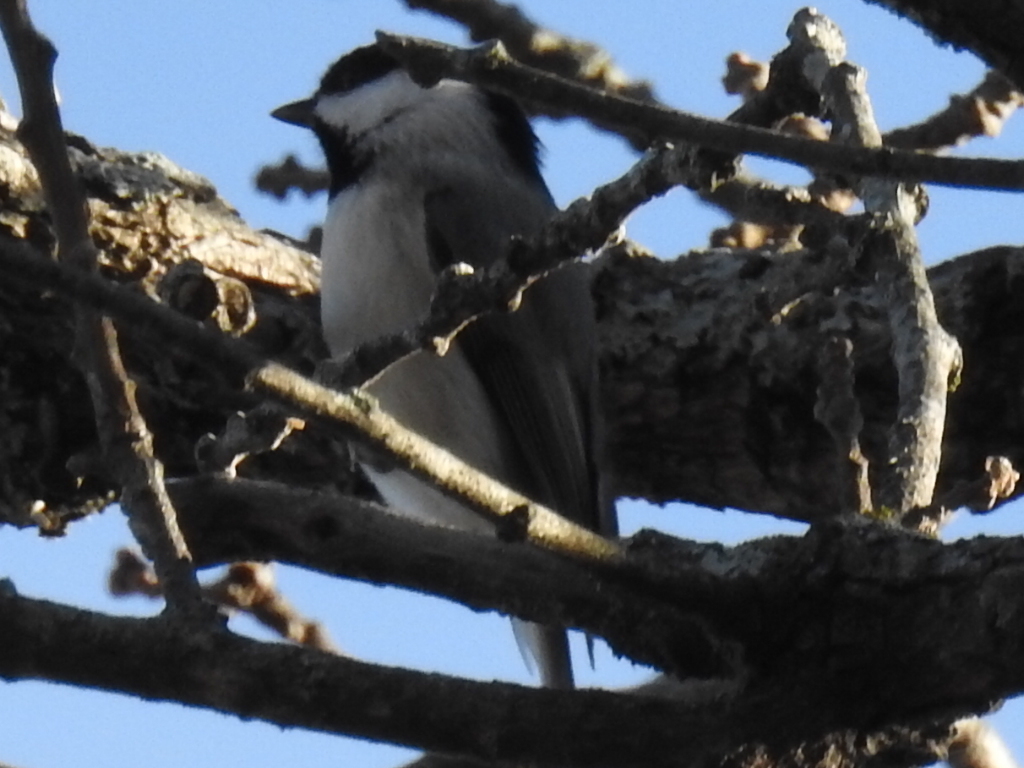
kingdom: Animalia
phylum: Chordata
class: Aves
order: Passeriformes
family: Paridae
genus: Poecile
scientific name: Poecile carolinensis
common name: Carolina chickadee
